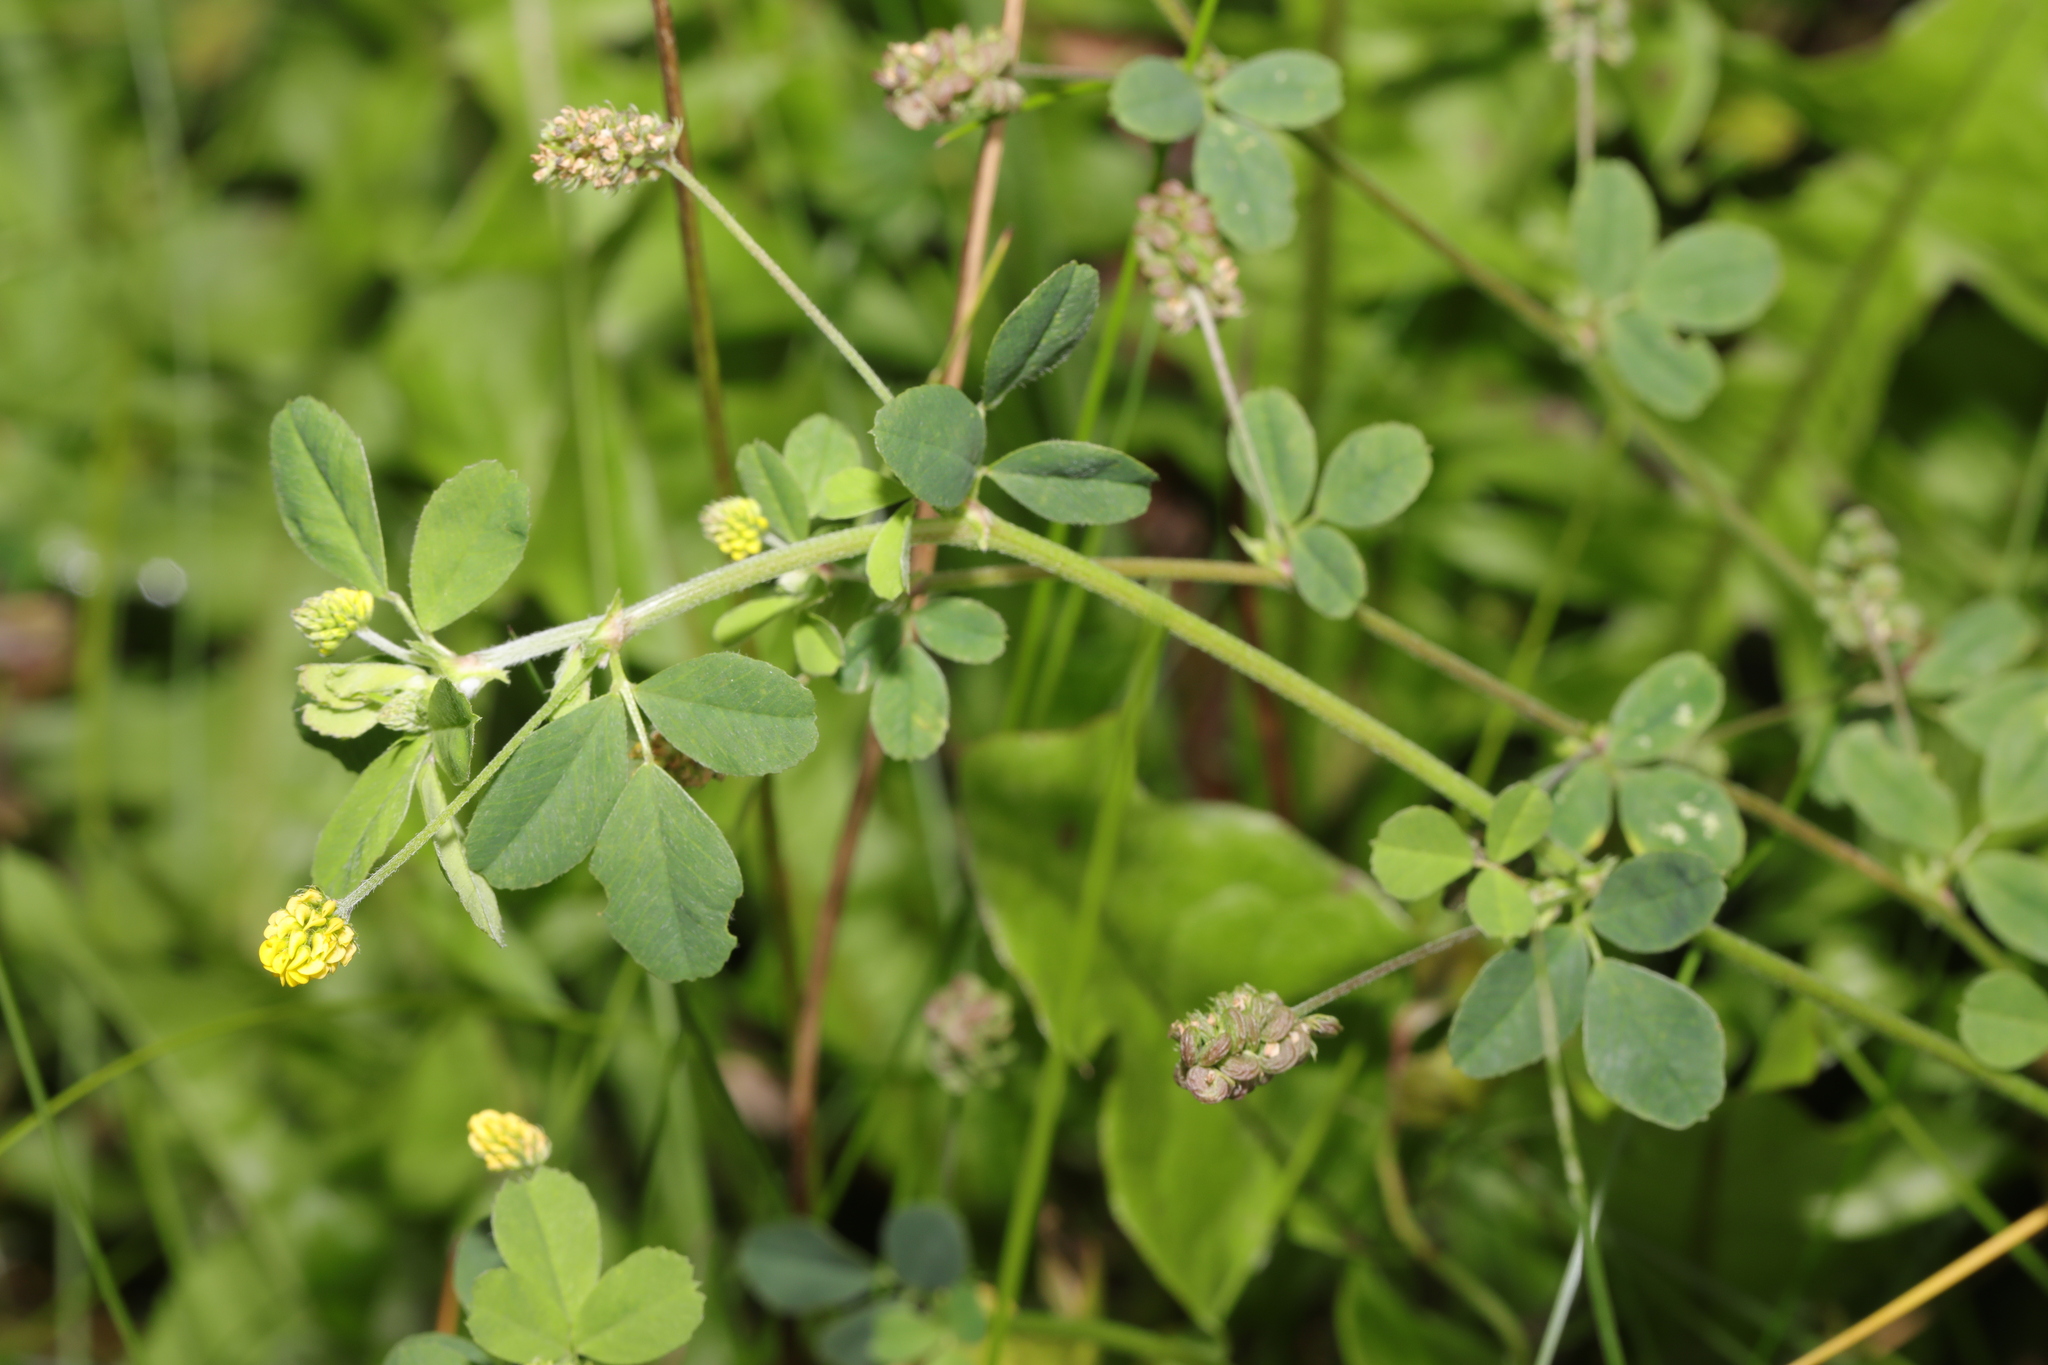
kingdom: Plantae
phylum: Tracheophyta
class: Magnoliopsida
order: Fabales
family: Fabaceae
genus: Medicago
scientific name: Medicago lupulina
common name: Black medick
